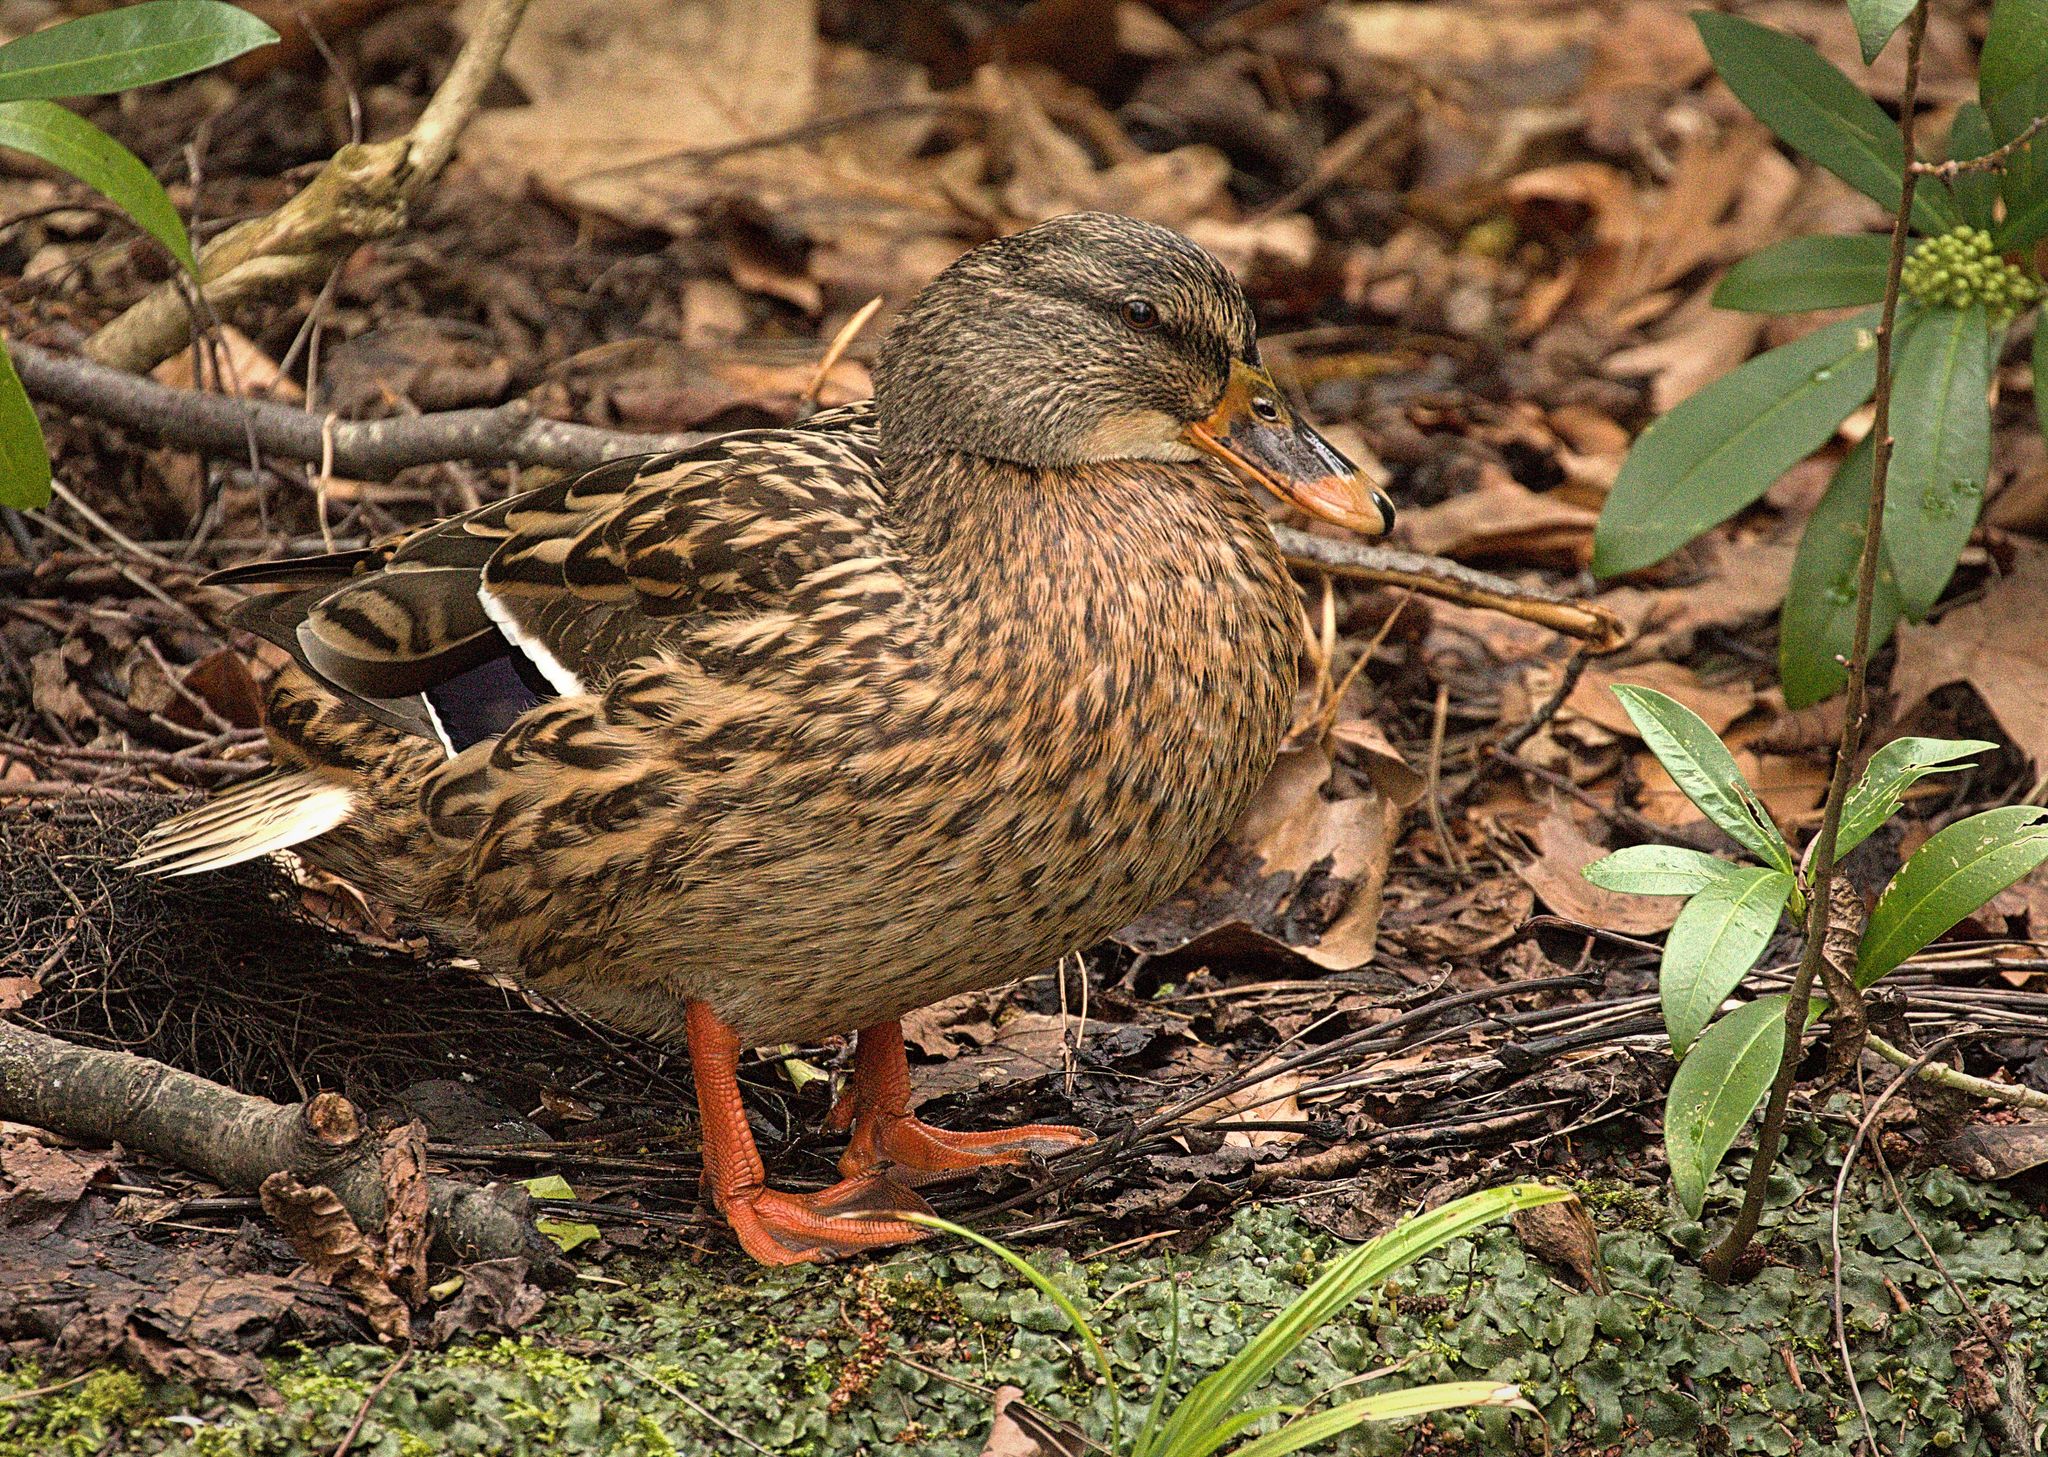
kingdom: Animalia
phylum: Chordata
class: Aves
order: Anseriformes
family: Anatidae
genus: Anas
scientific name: Anas platyrhynchos
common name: Mallard
